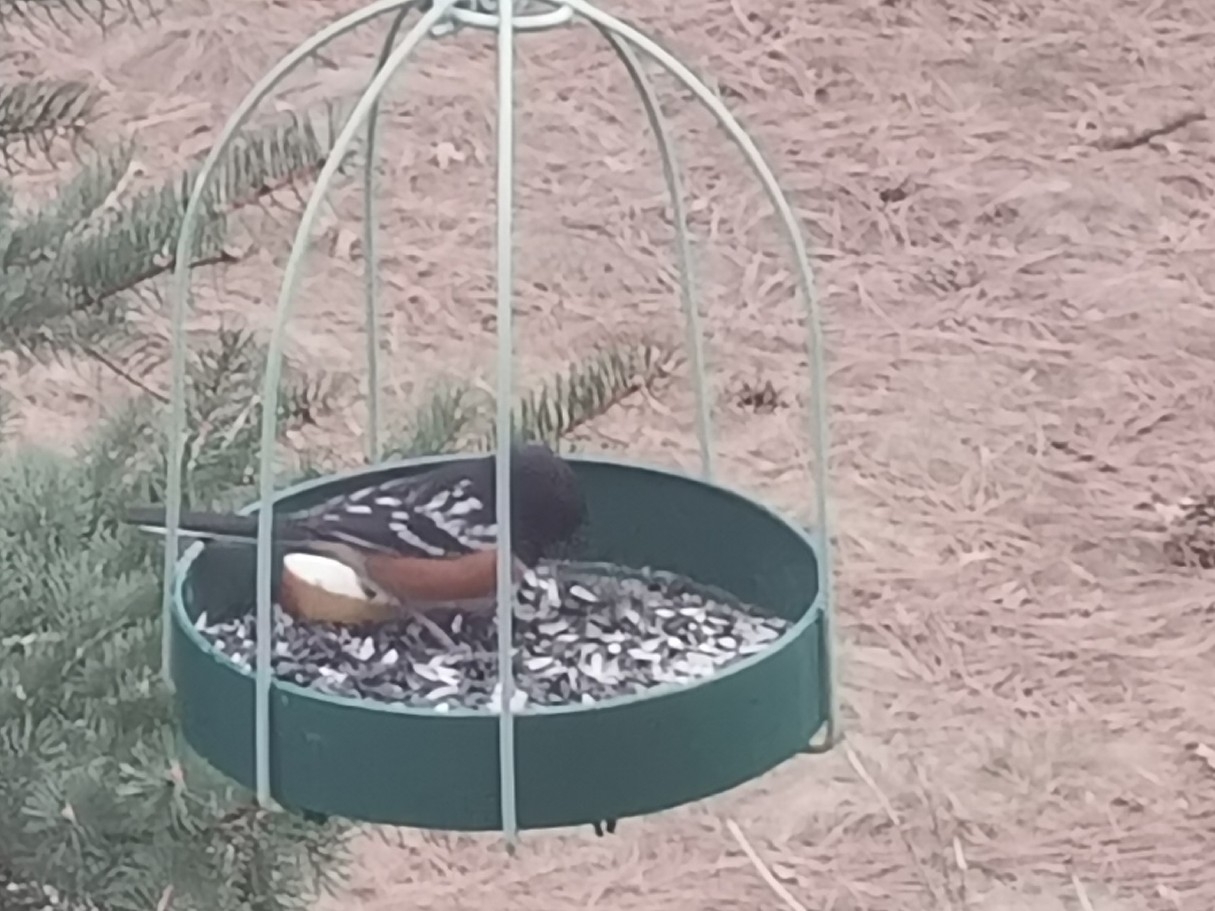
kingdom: Animalia
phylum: Chordata
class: Aves
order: Passeriformes
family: Passerellidae
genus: Pipilo
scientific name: Pipilo maculatus
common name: Spotted towhee
